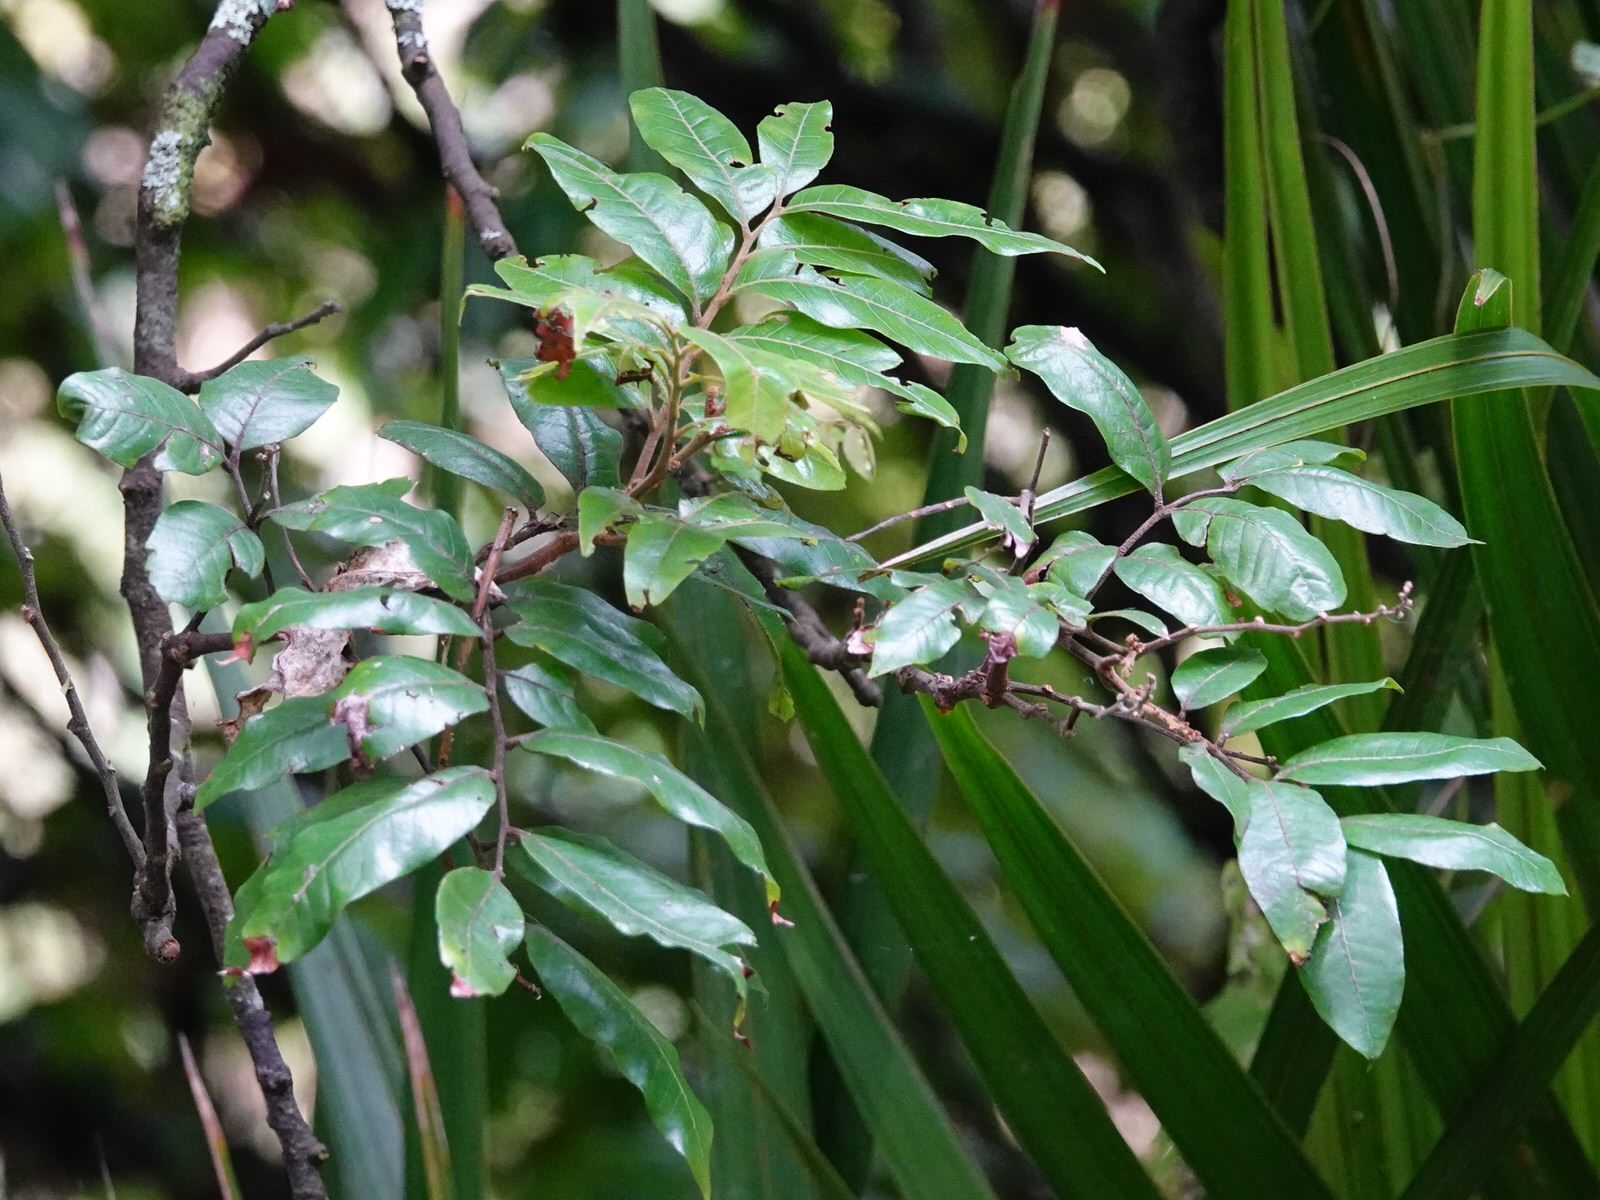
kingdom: Plantae
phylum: Tracheophyta
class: Magnoliopsida
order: Sapindales
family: Sapindaceae
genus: Alectryon
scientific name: Alectryon excelsus
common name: Three kings titoki
